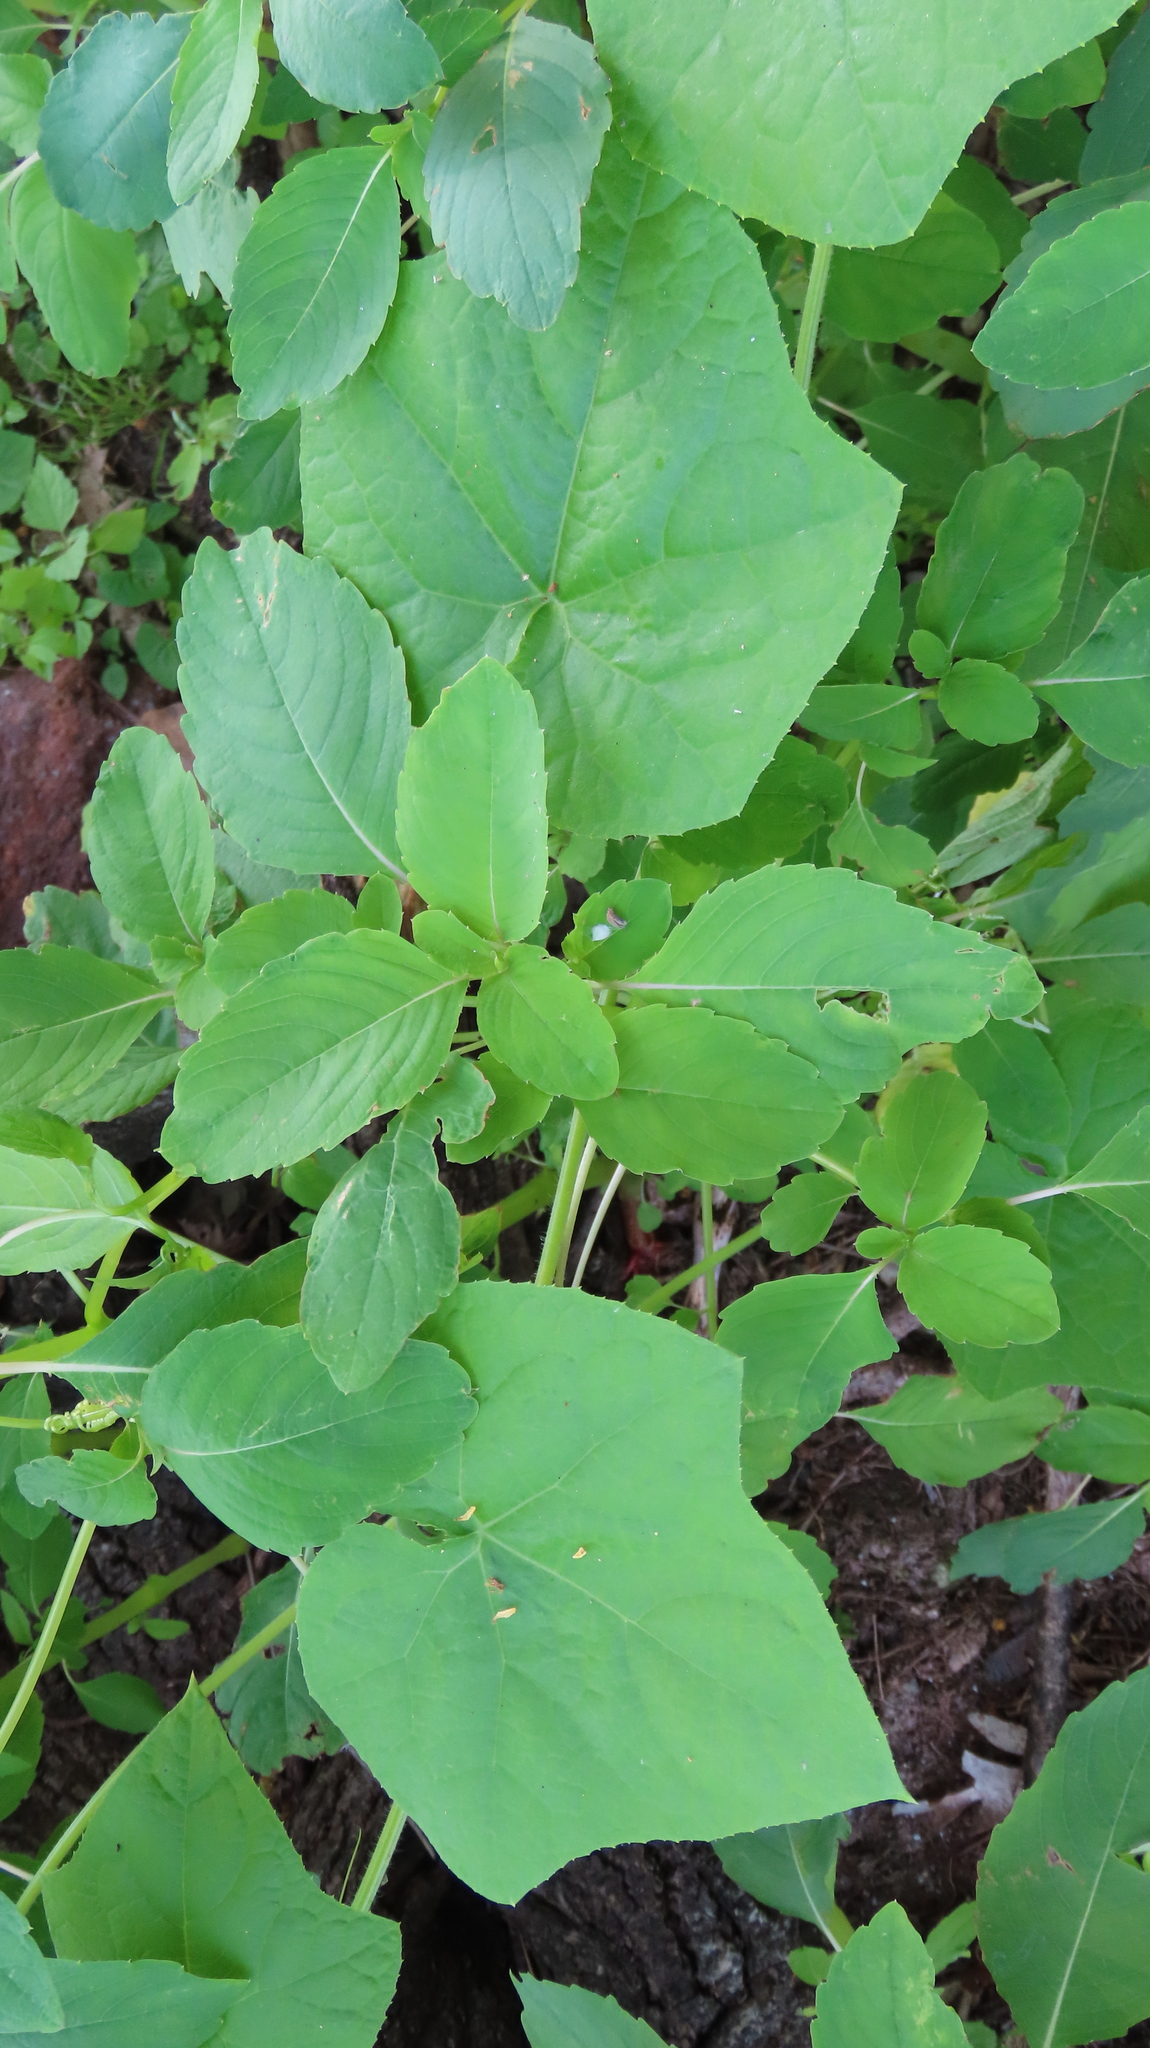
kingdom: Plantae
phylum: Tracheophyta
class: Magnoliopsida
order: Cucurbitales
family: Cucurbitaceae
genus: Sicyos
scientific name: Sicyos angulatus
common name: Angled burr cucumber
